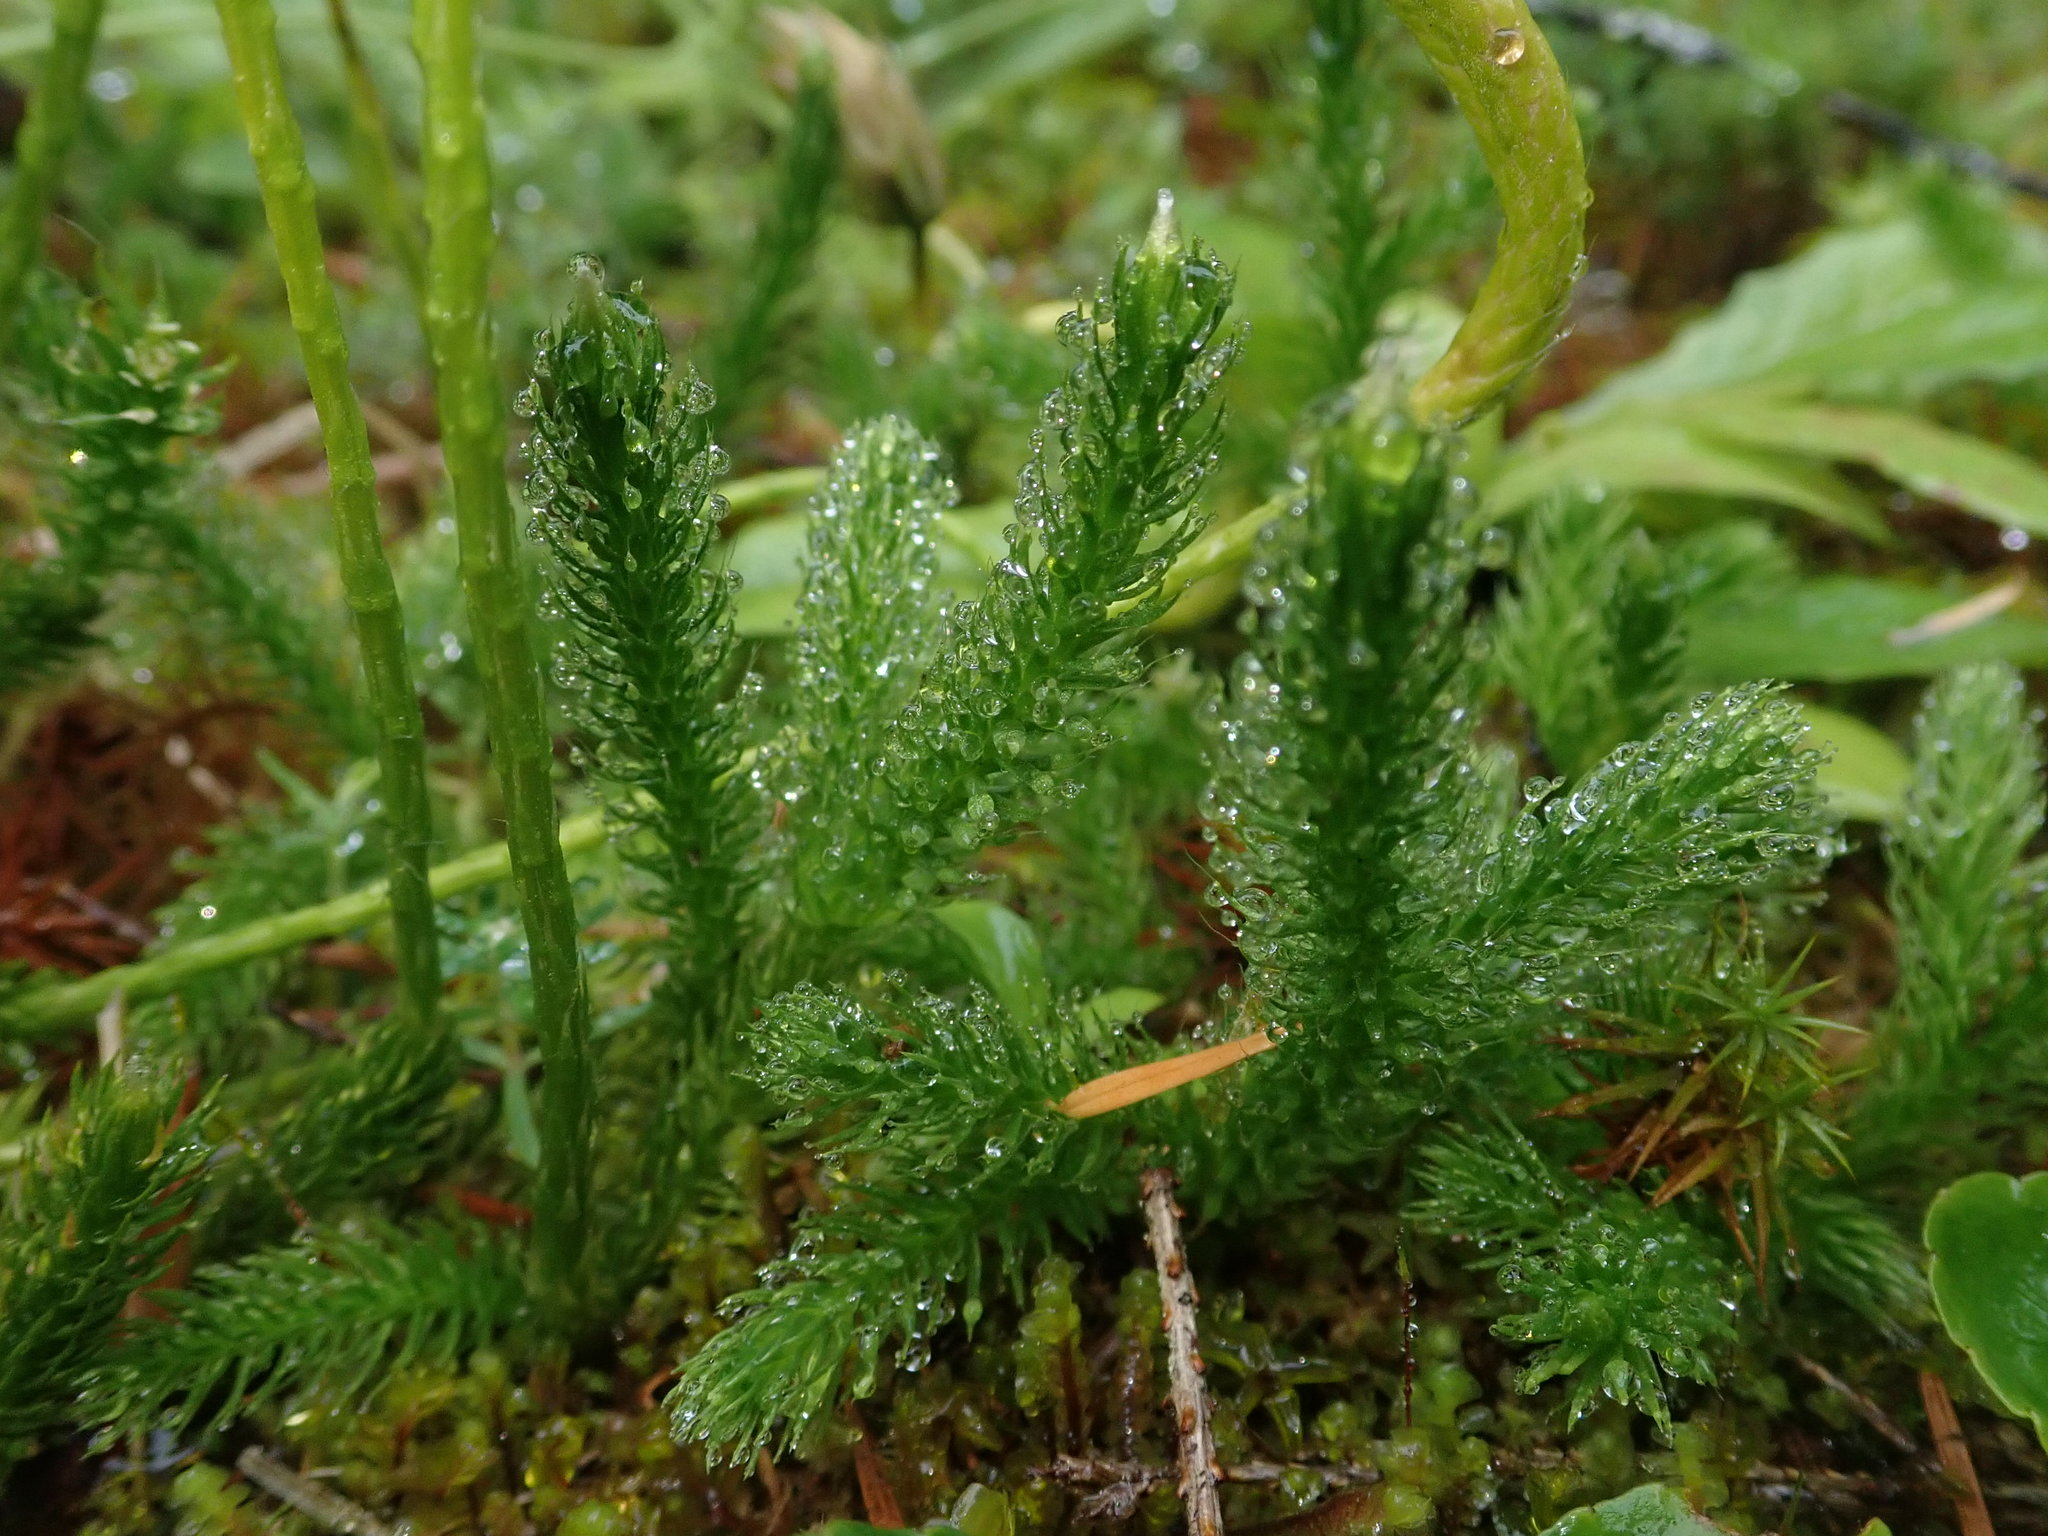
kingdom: Plantae
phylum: Tracheophyta
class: Lycopodiopsida
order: Lycopodiales
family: Lycopodiaceae
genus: Lycopodium
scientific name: Lycopodium clavatum
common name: Stag's-horn clubmoss
